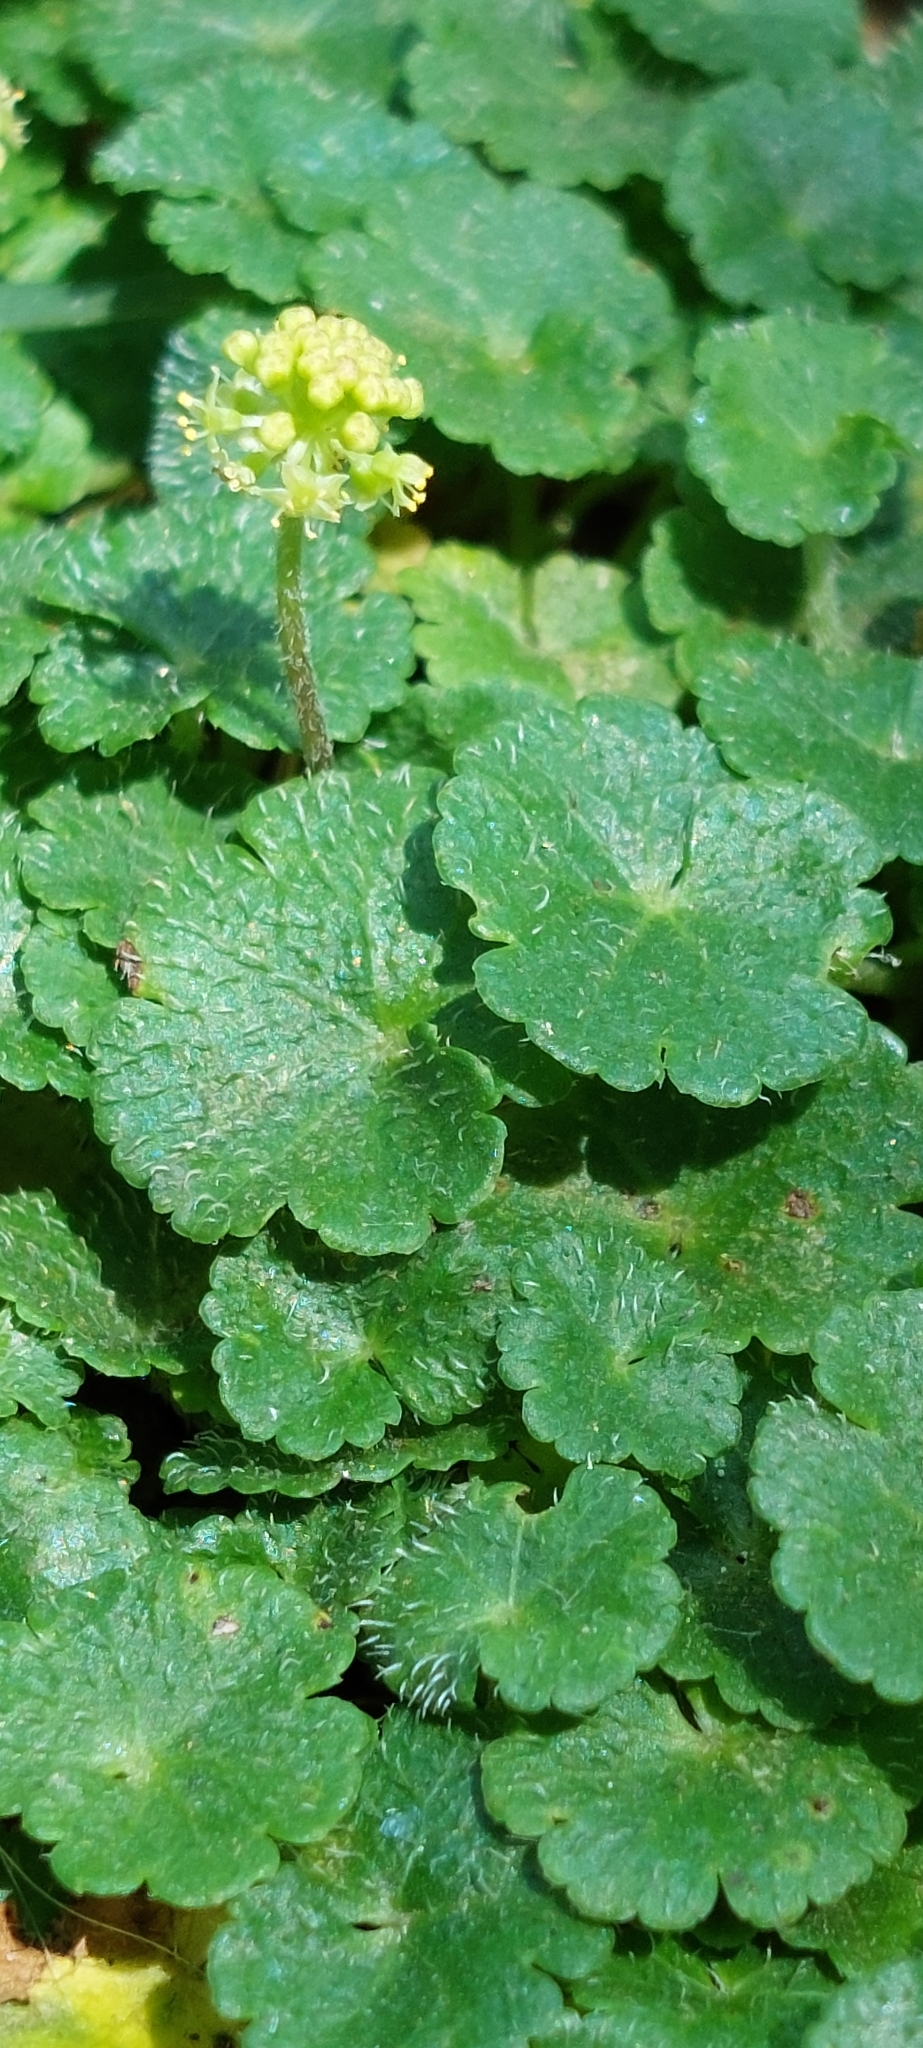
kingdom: Plantae
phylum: Tracheophyta
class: Magnoliopsida
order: Apiales
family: Araliaceae
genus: Hydrocotyle
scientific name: Hydrocotyle bonplandii
